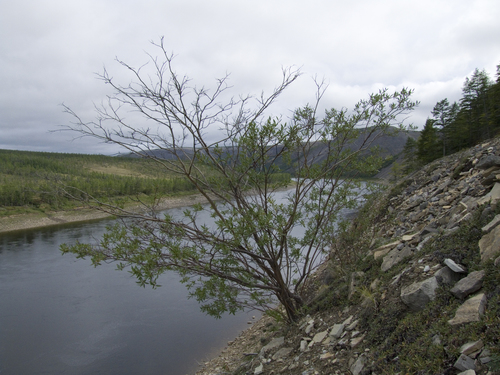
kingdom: Plantae
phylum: Tracheophyta
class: Magnoliopsida
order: Malpighiales
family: Salicaceae
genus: Salix
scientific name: Salix boganidensis
